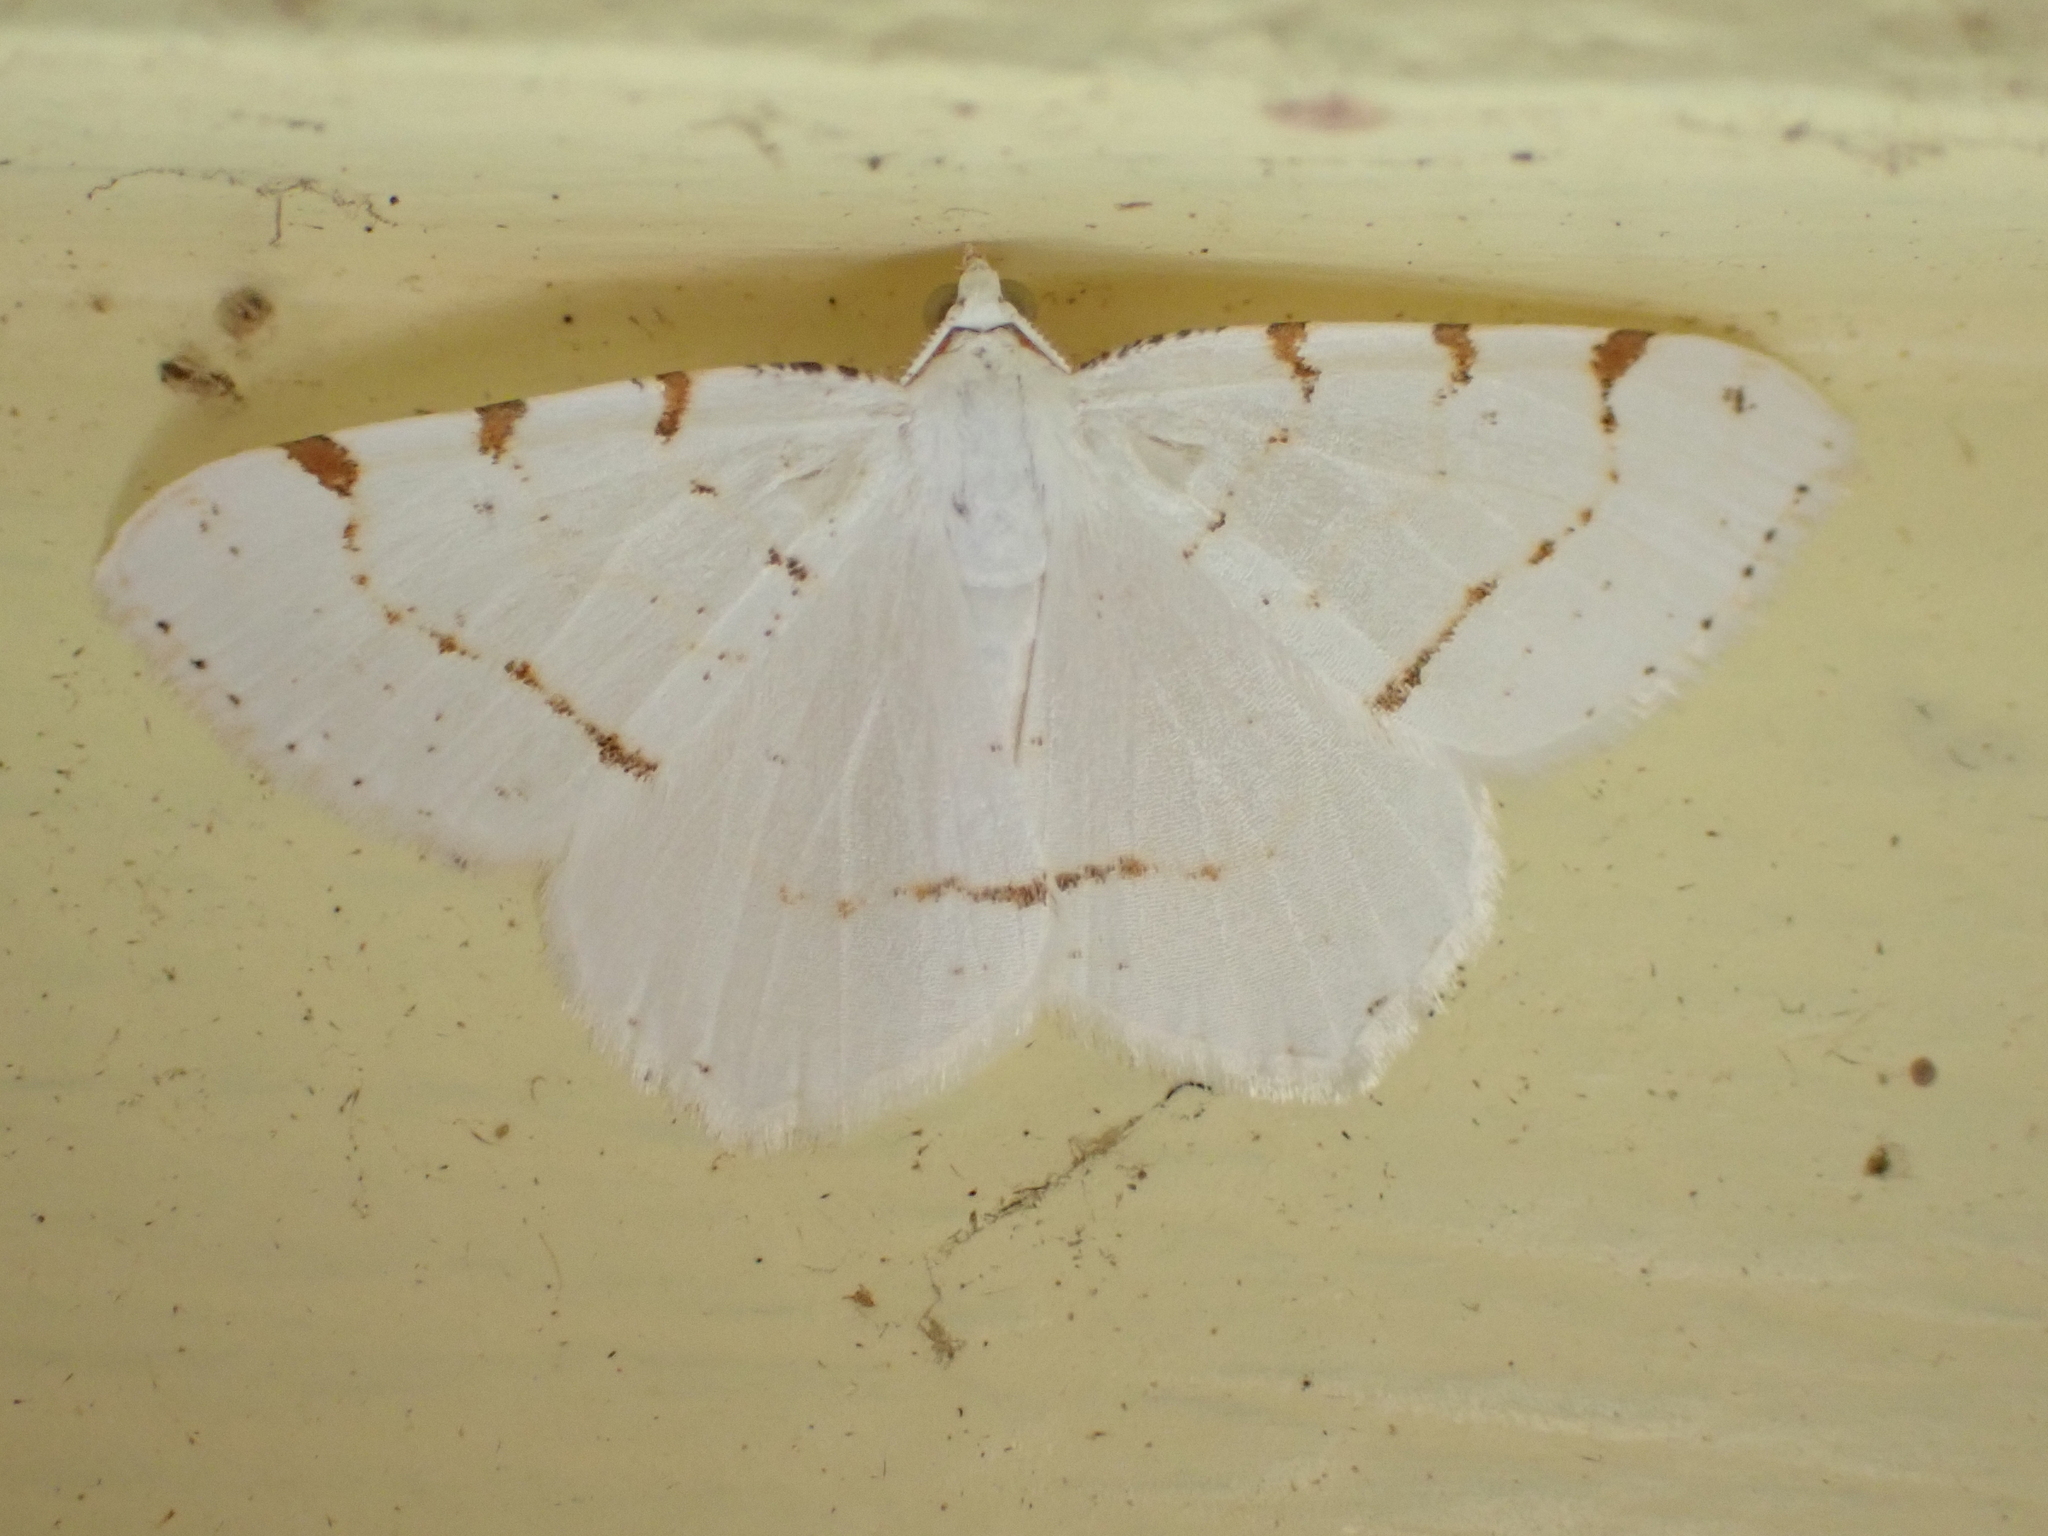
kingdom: Animalia
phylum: Arthropoda
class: Insecta
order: Lepidoptera
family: Geometridae
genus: Macaria
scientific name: Macaria pustularia
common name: Lesser maple spanworm moth
